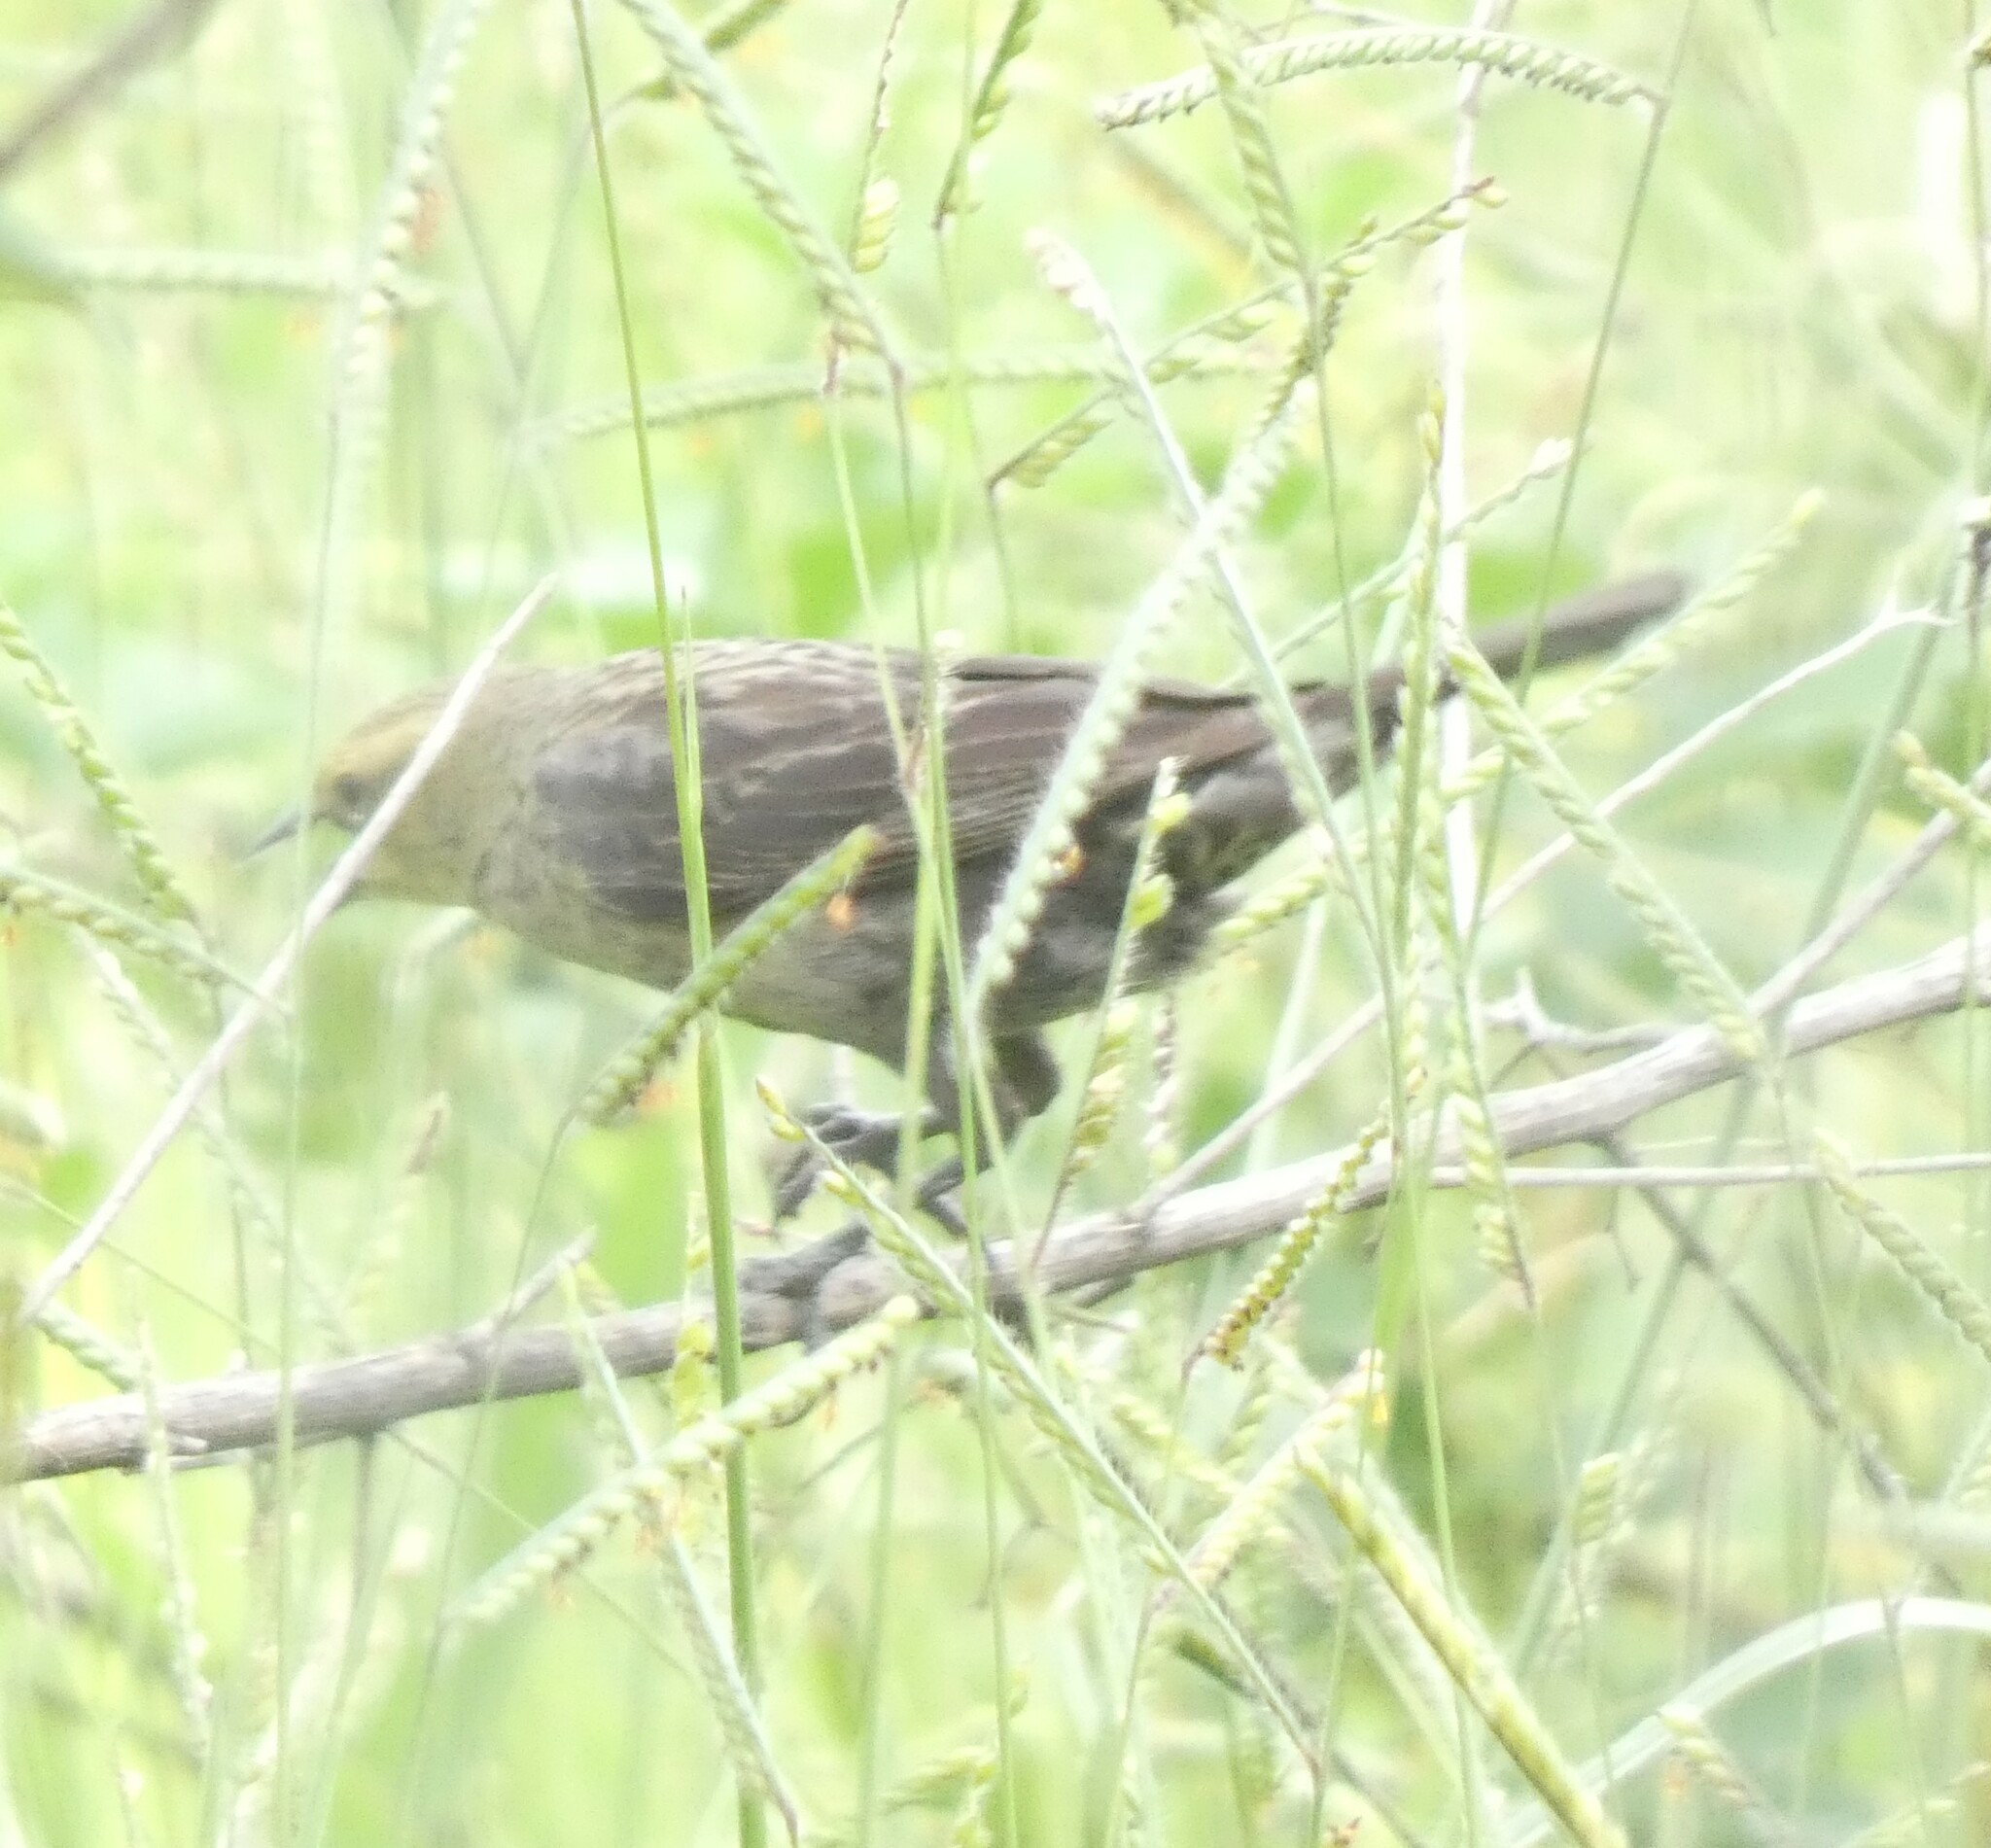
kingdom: Animalia
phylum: Chordata
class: Aves
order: Passeriformes
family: Icteridae
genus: Chrysomus
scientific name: Chrysomus ruficapillus
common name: Chestnut-capped blackbird
